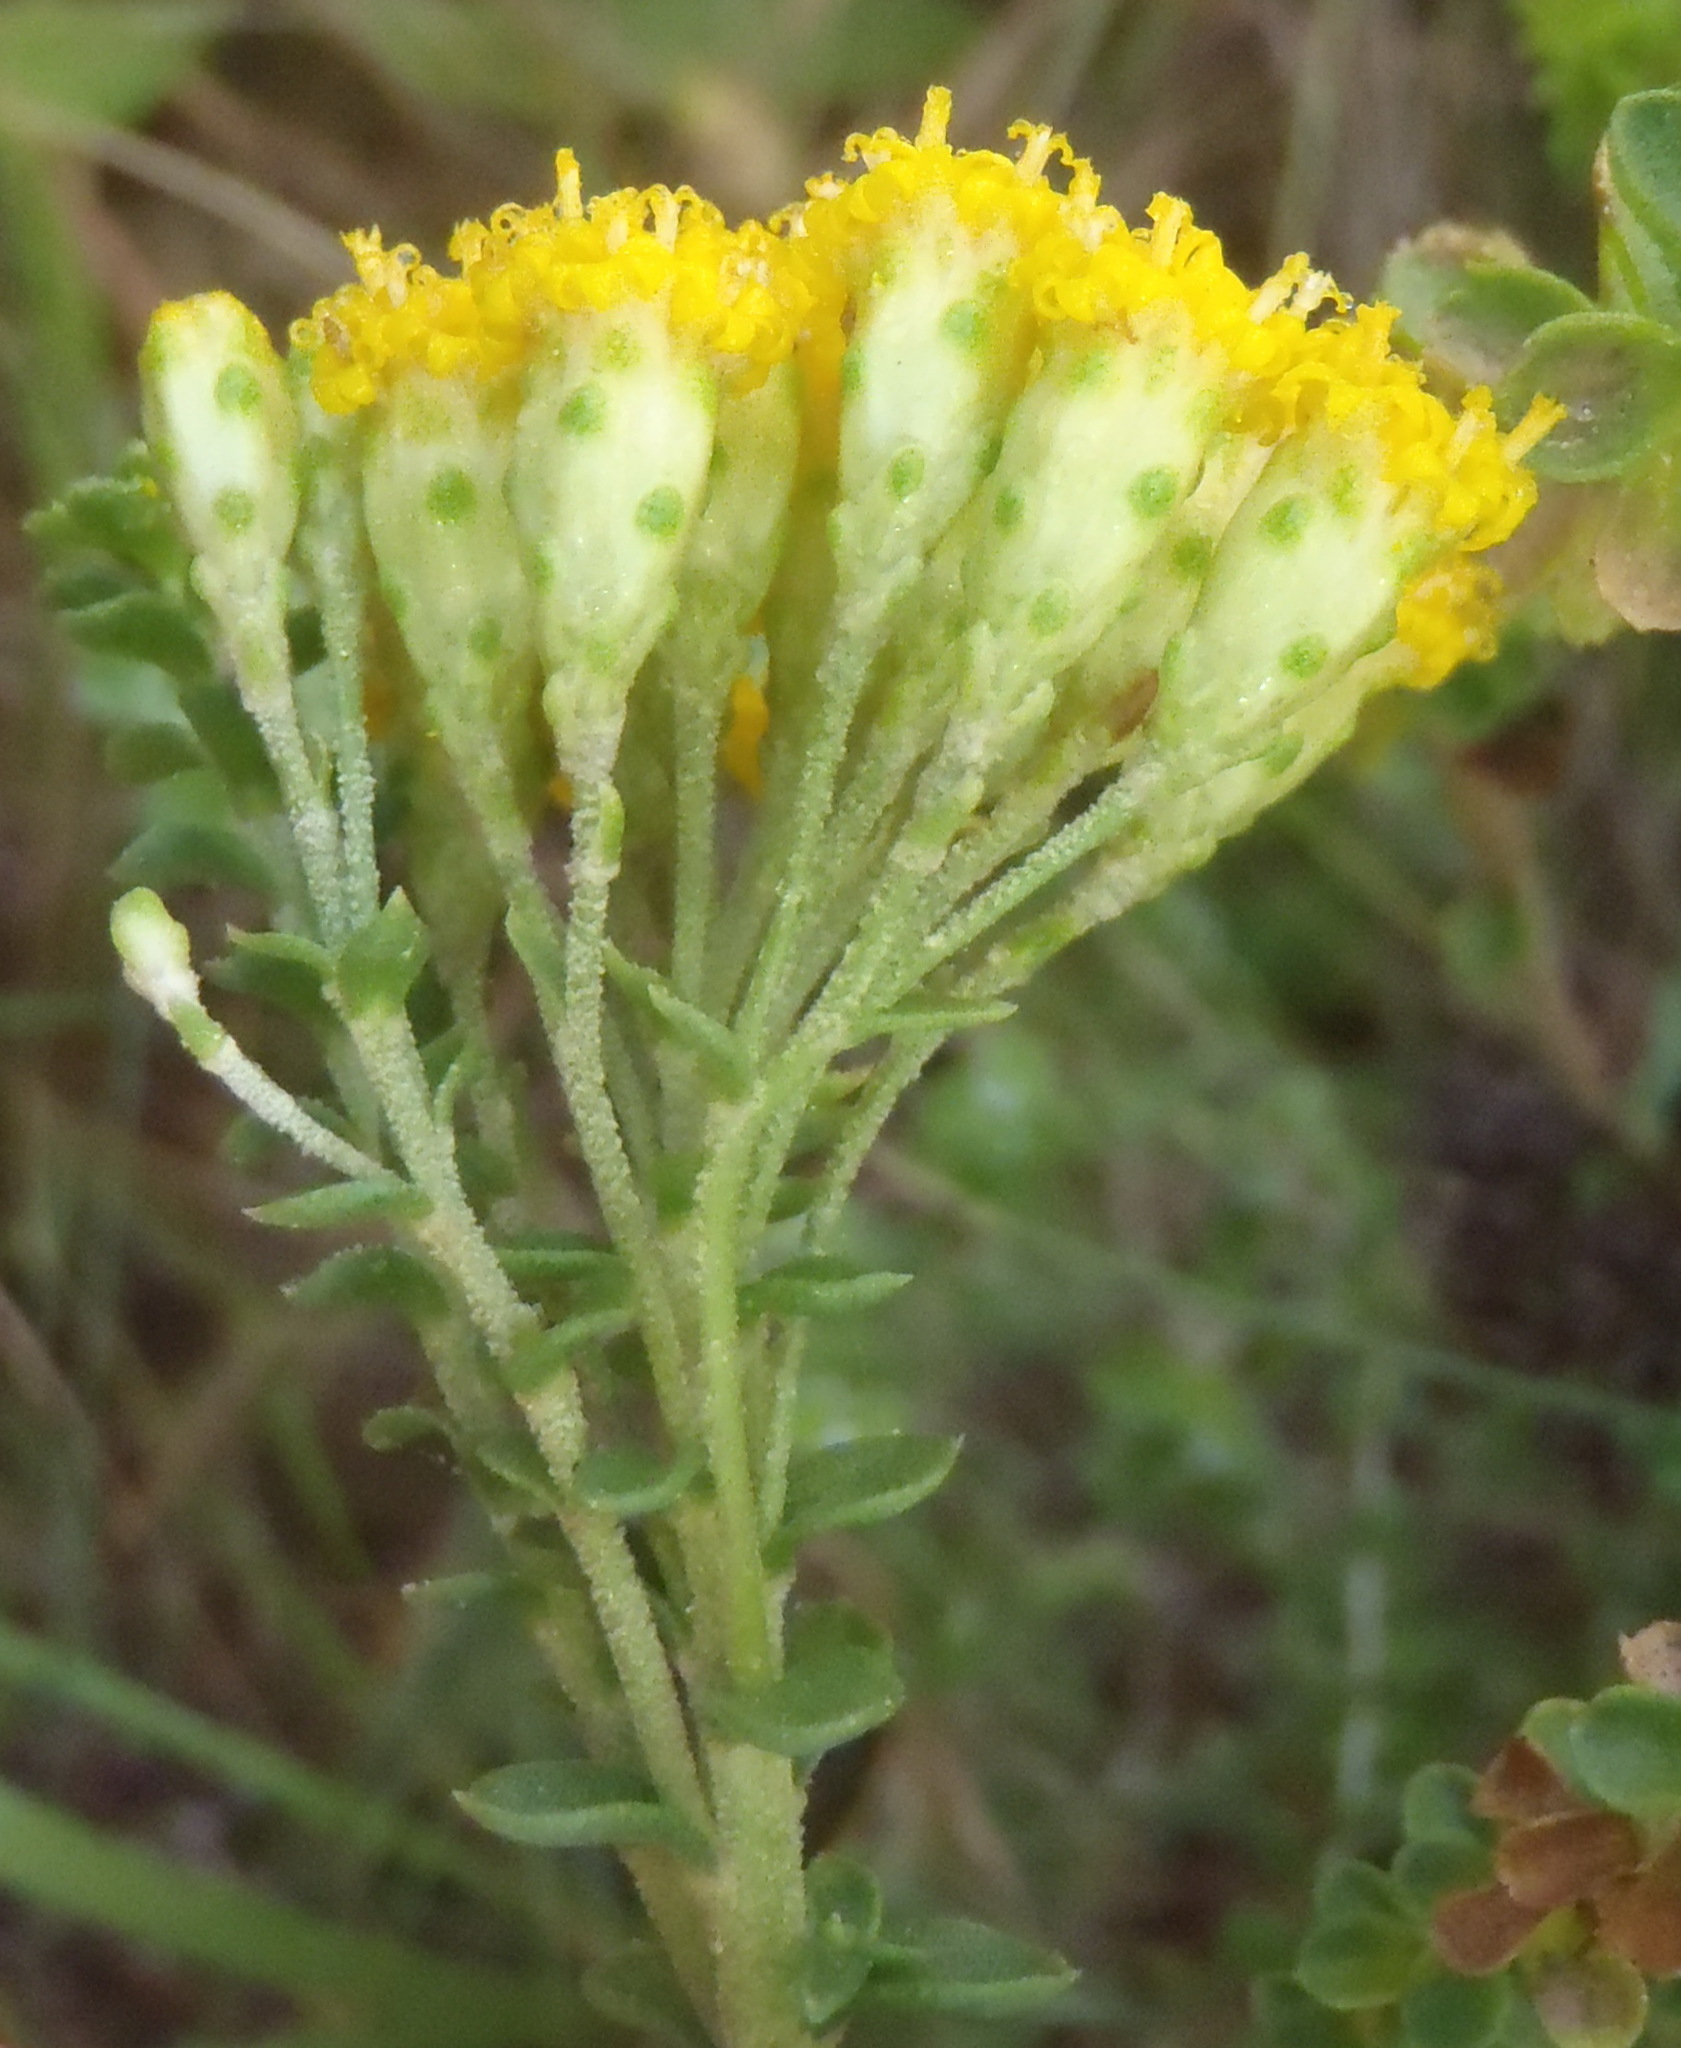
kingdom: Plantae
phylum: Tracheophyta
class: Magnoliopsida
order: Asterales
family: Asteraceae
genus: Athanasia
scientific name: Athanasia quinquedentata
